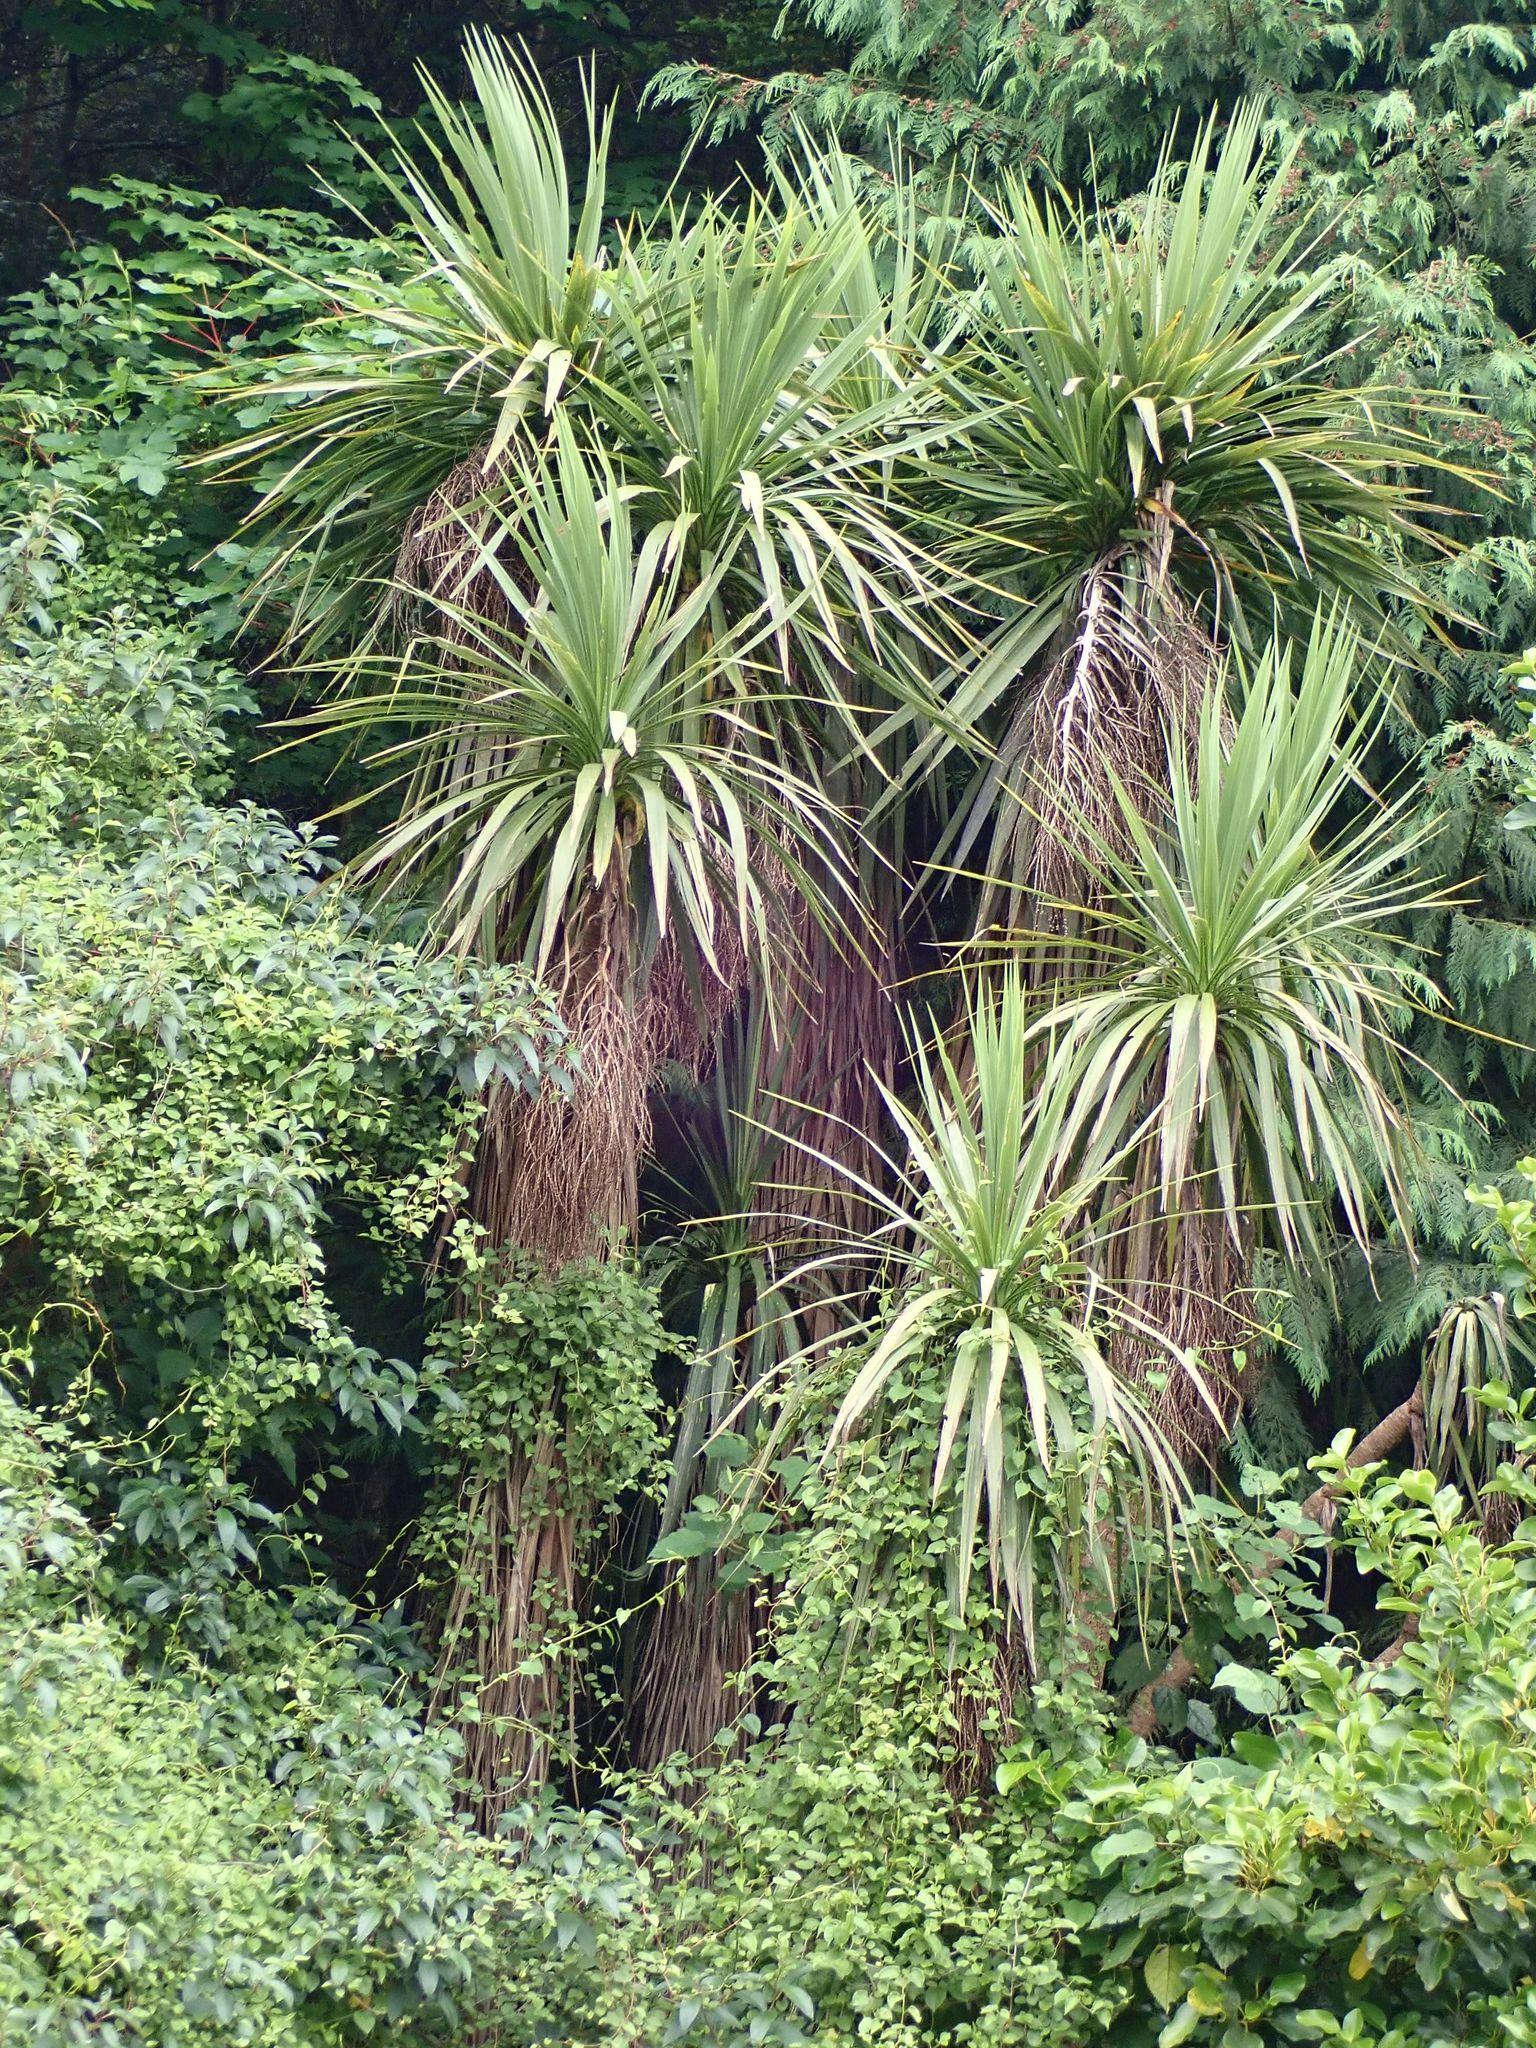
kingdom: Plantae
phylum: Tracheophyta
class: Liliopsida
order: Asparagales
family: Asparagaceae
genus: Cordyline
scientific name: Cordyline australis
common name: Cabbage-palm
